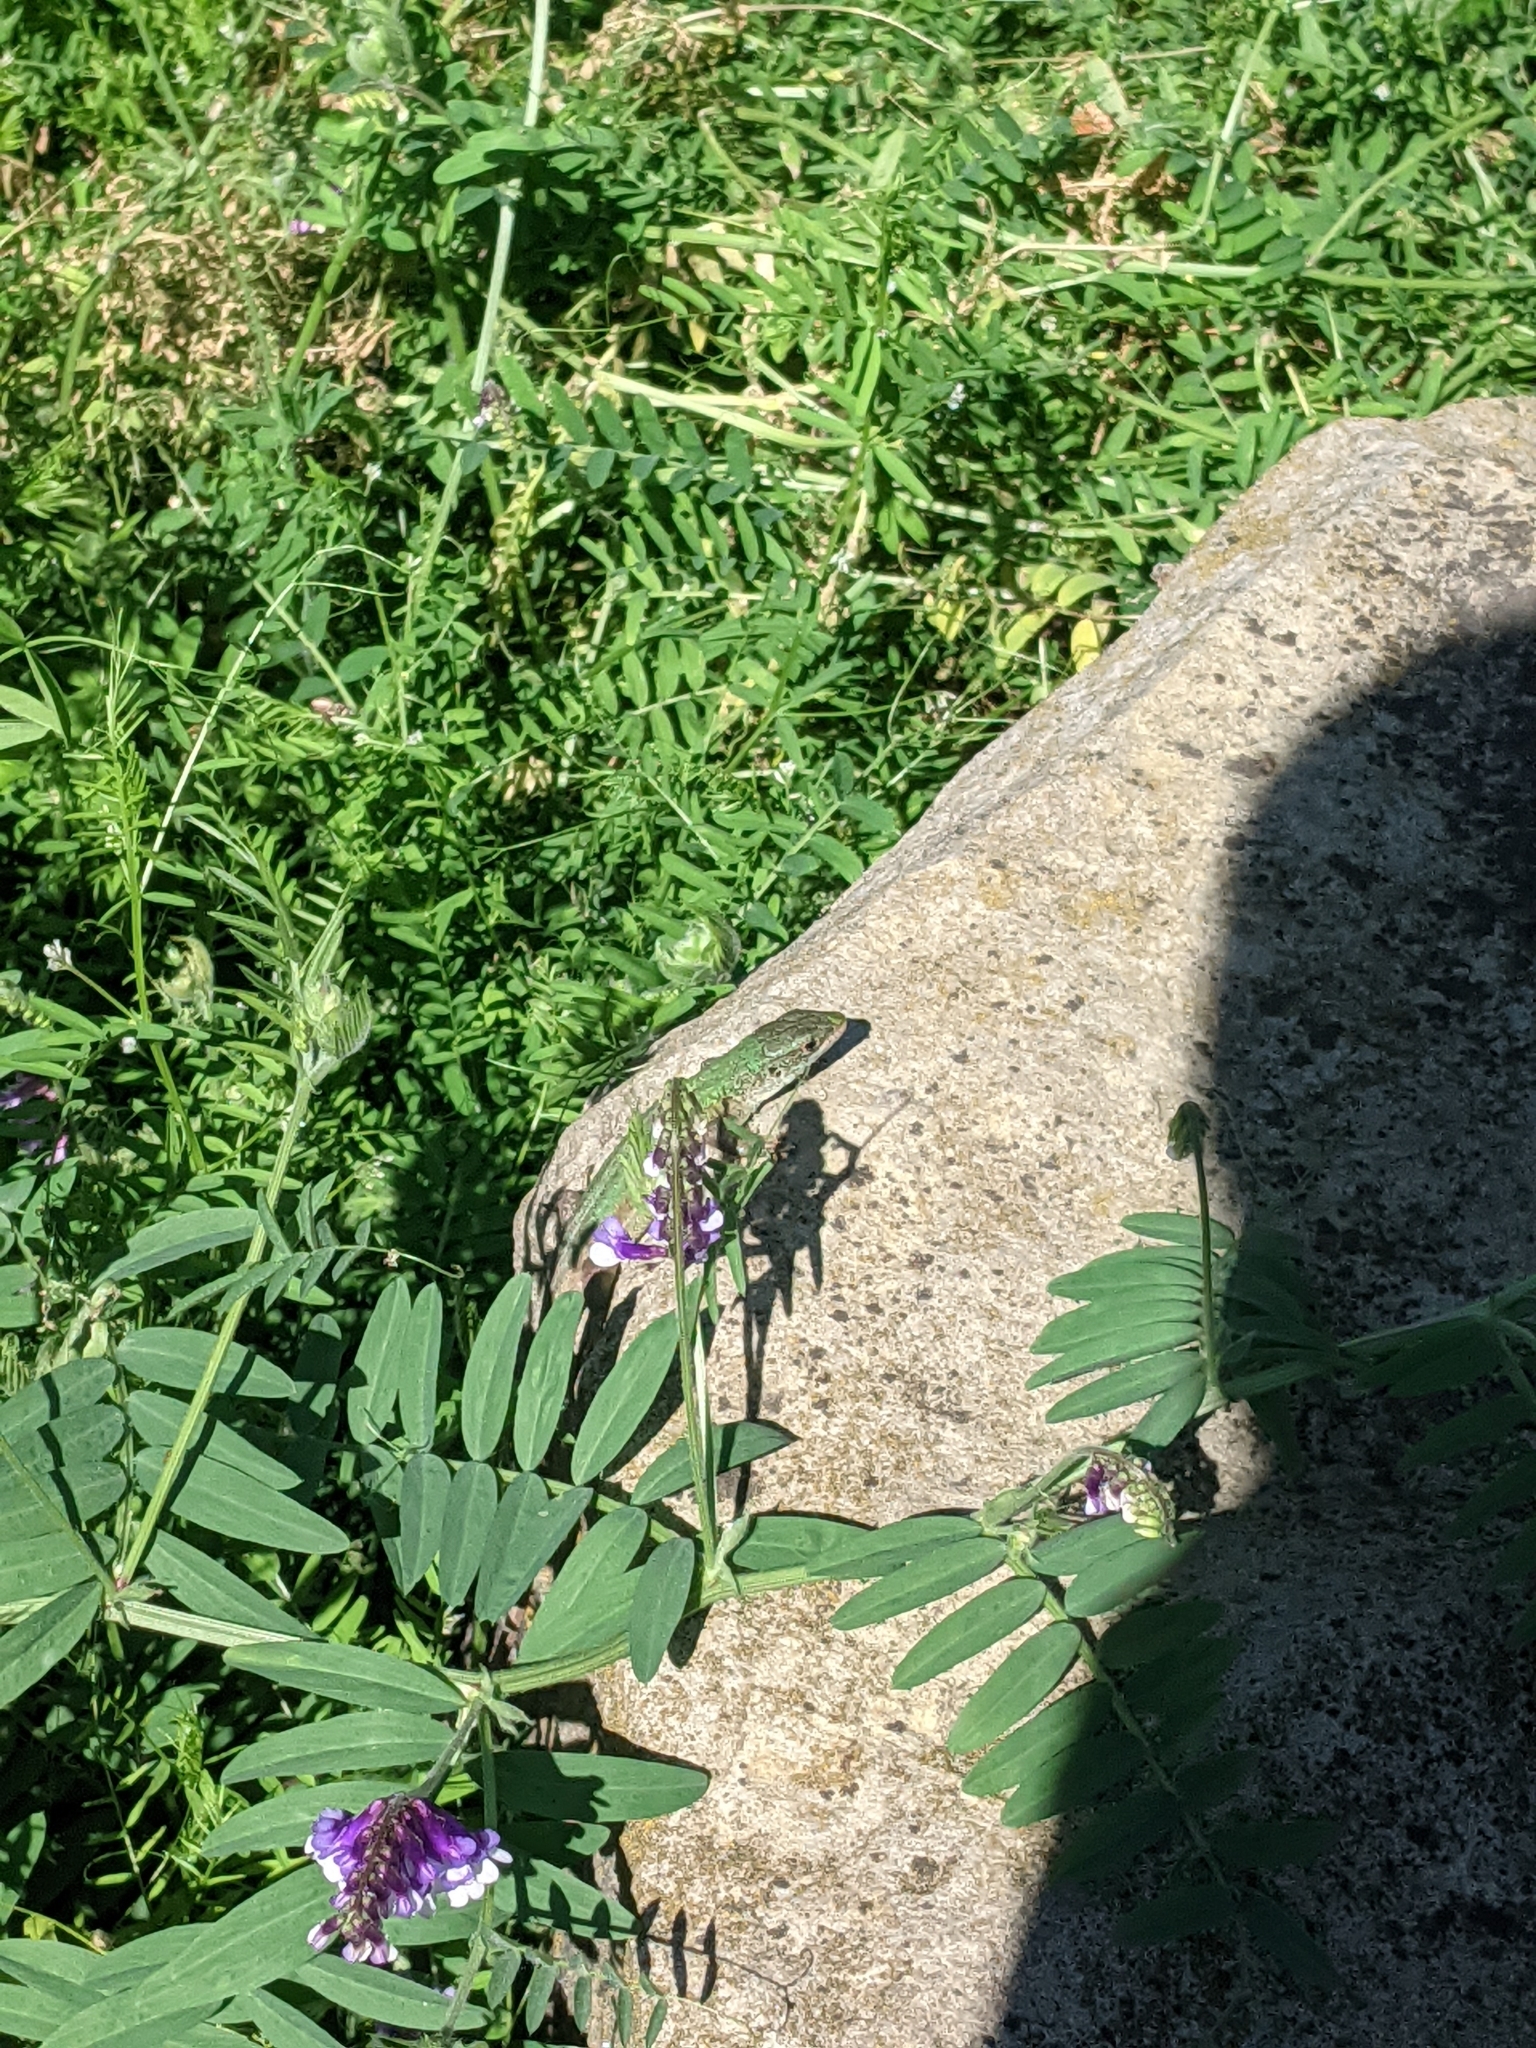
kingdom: Animalia
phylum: Chordata
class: Squamata
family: Lacertidae
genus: Lacerta
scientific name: Lacerta viridis
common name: European green lizard
